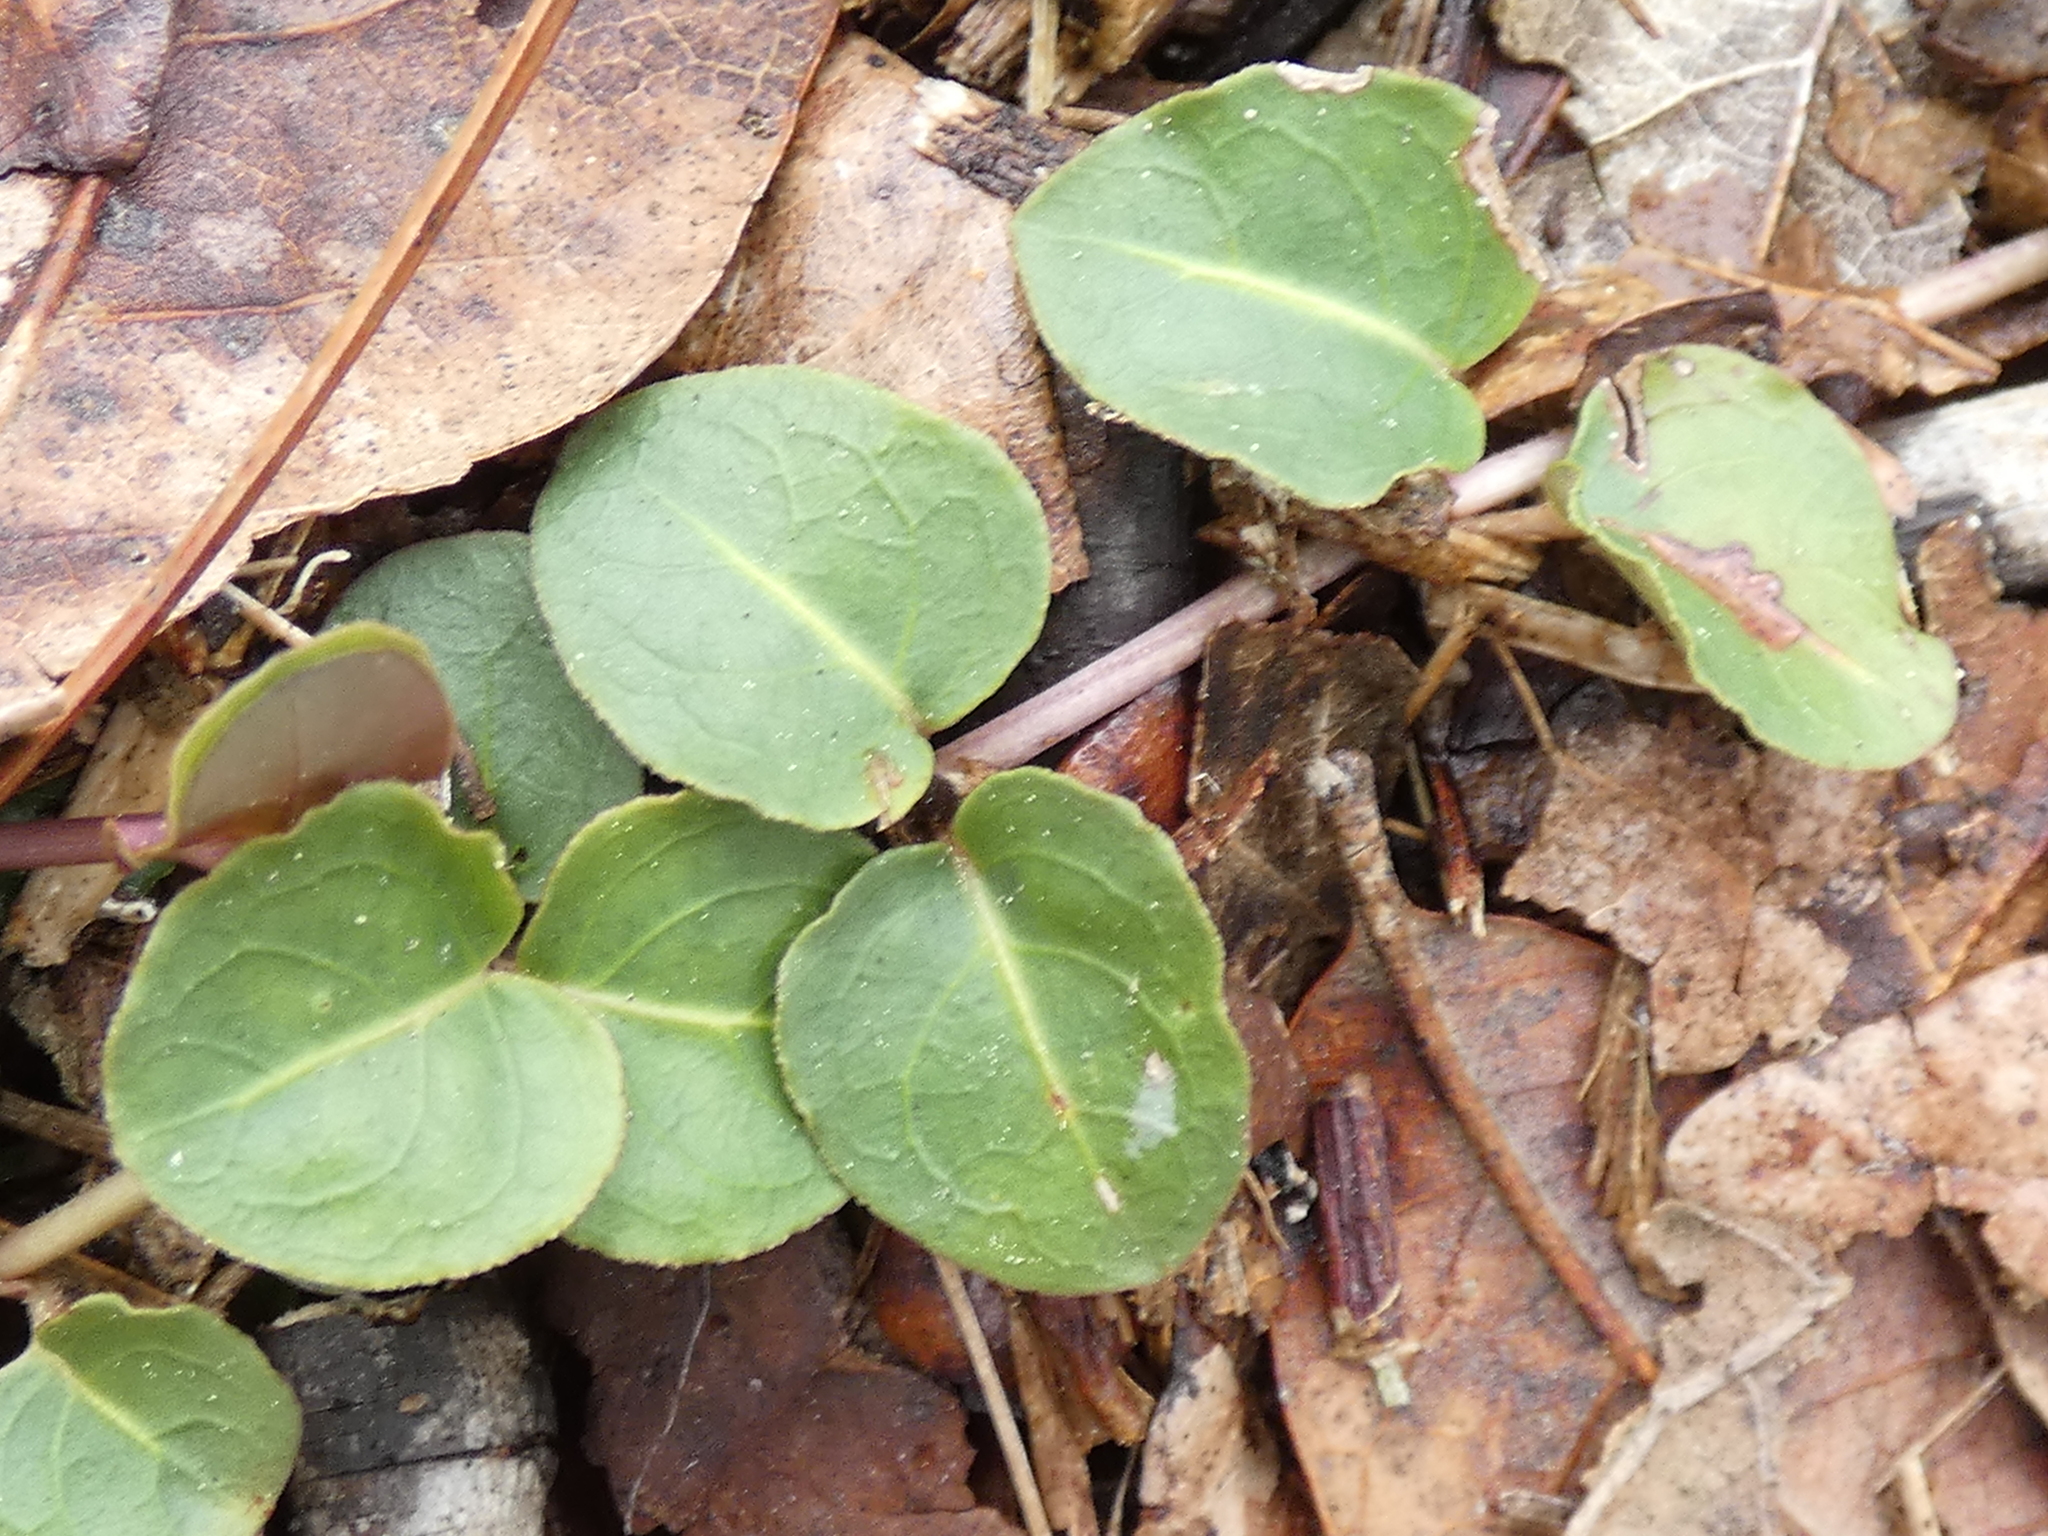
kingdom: Plantae
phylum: Tracheophyta
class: Magnoliopsida
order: Gentianales
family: Rubiaceae
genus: Mitchella
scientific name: Mitchella repens
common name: Partridge-berry
